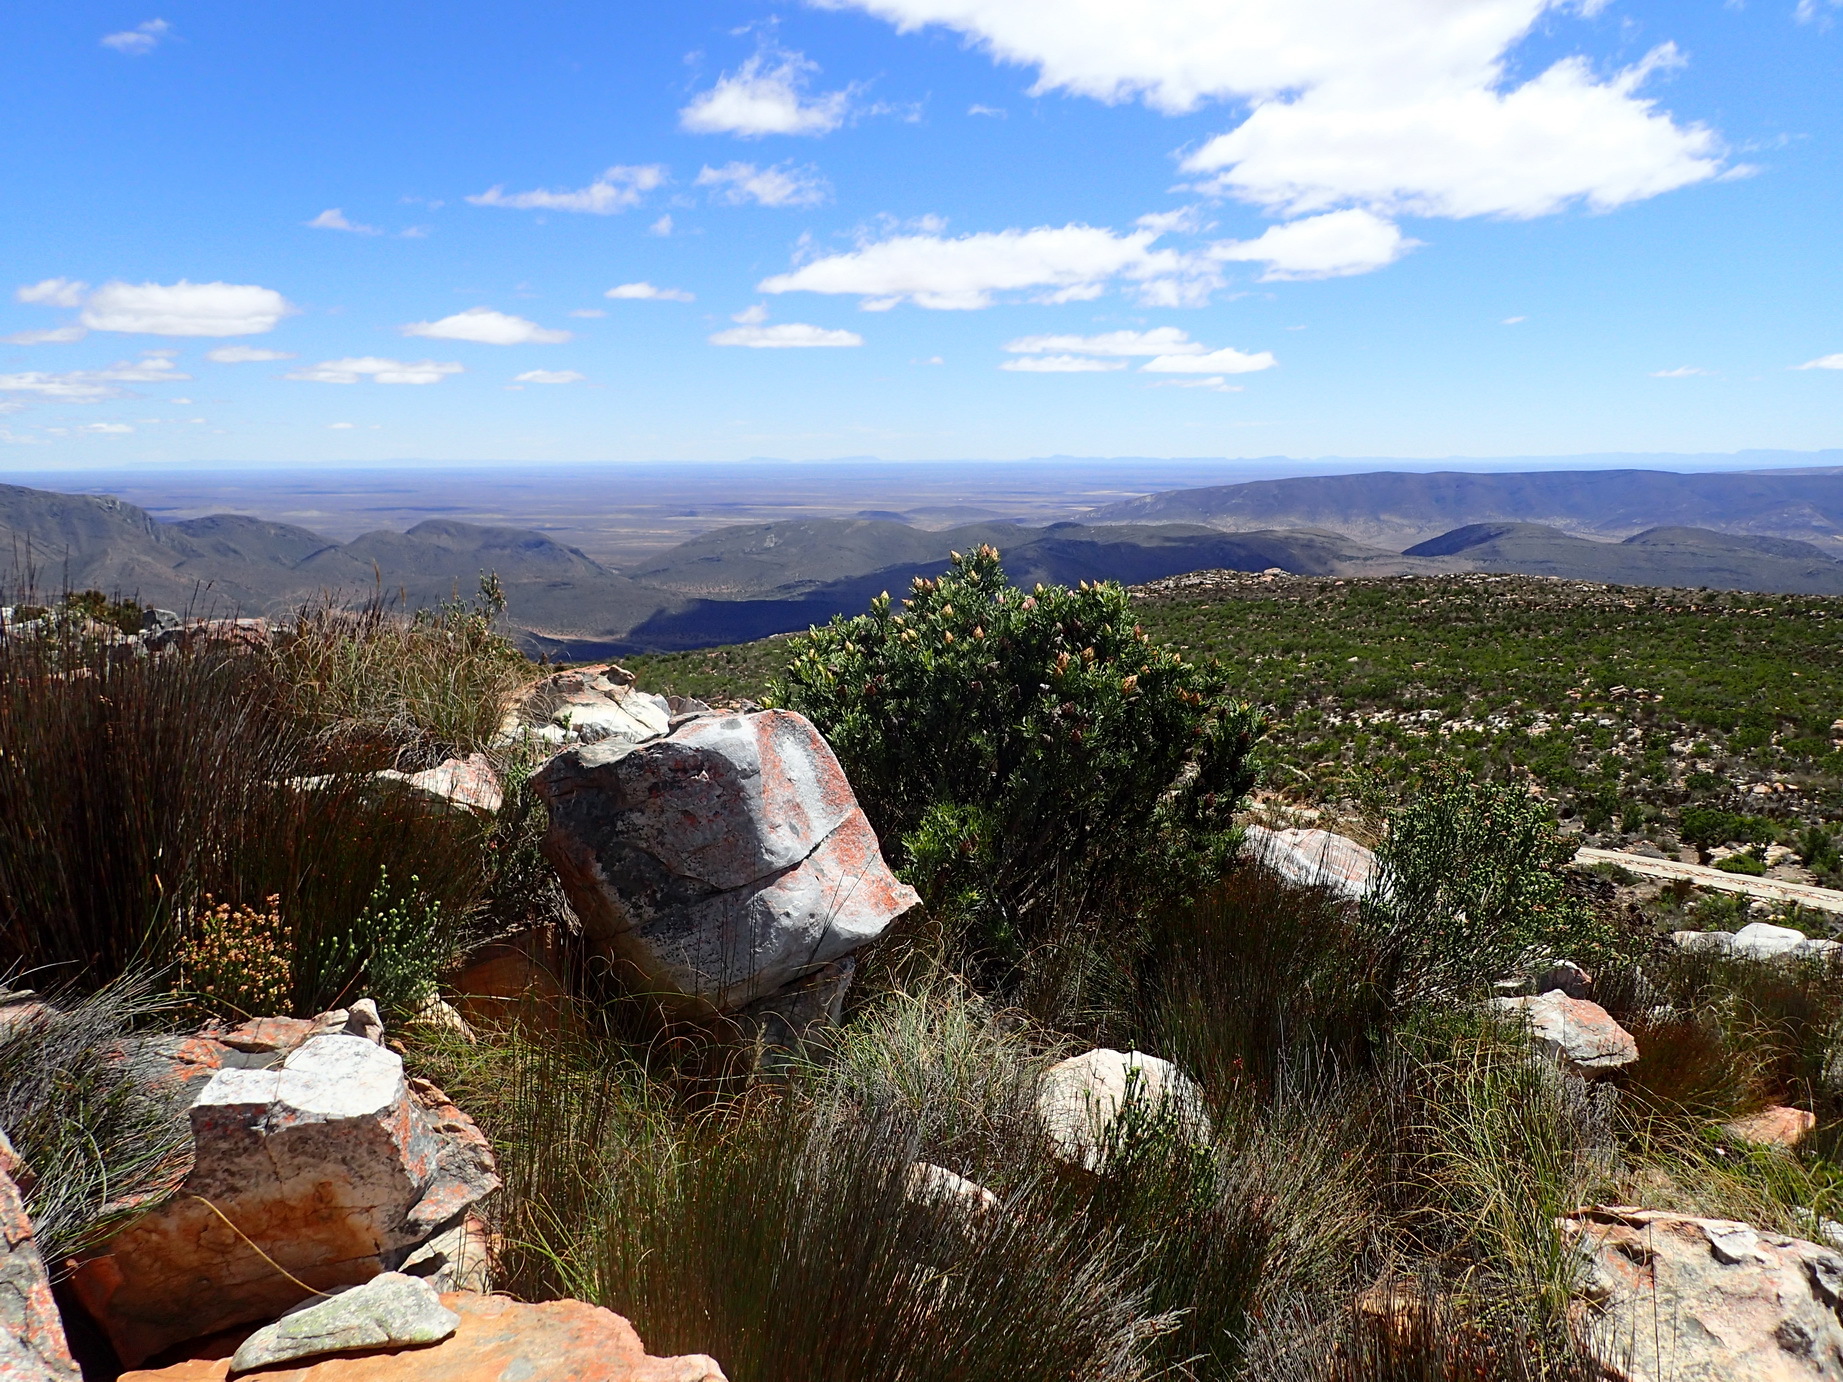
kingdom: Plantae
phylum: Tracheophyta
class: Magnoliopsida
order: Proteales
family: Proteaceae
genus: Leucadendron
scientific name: Leucadendron rubrum
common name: Spinning top
